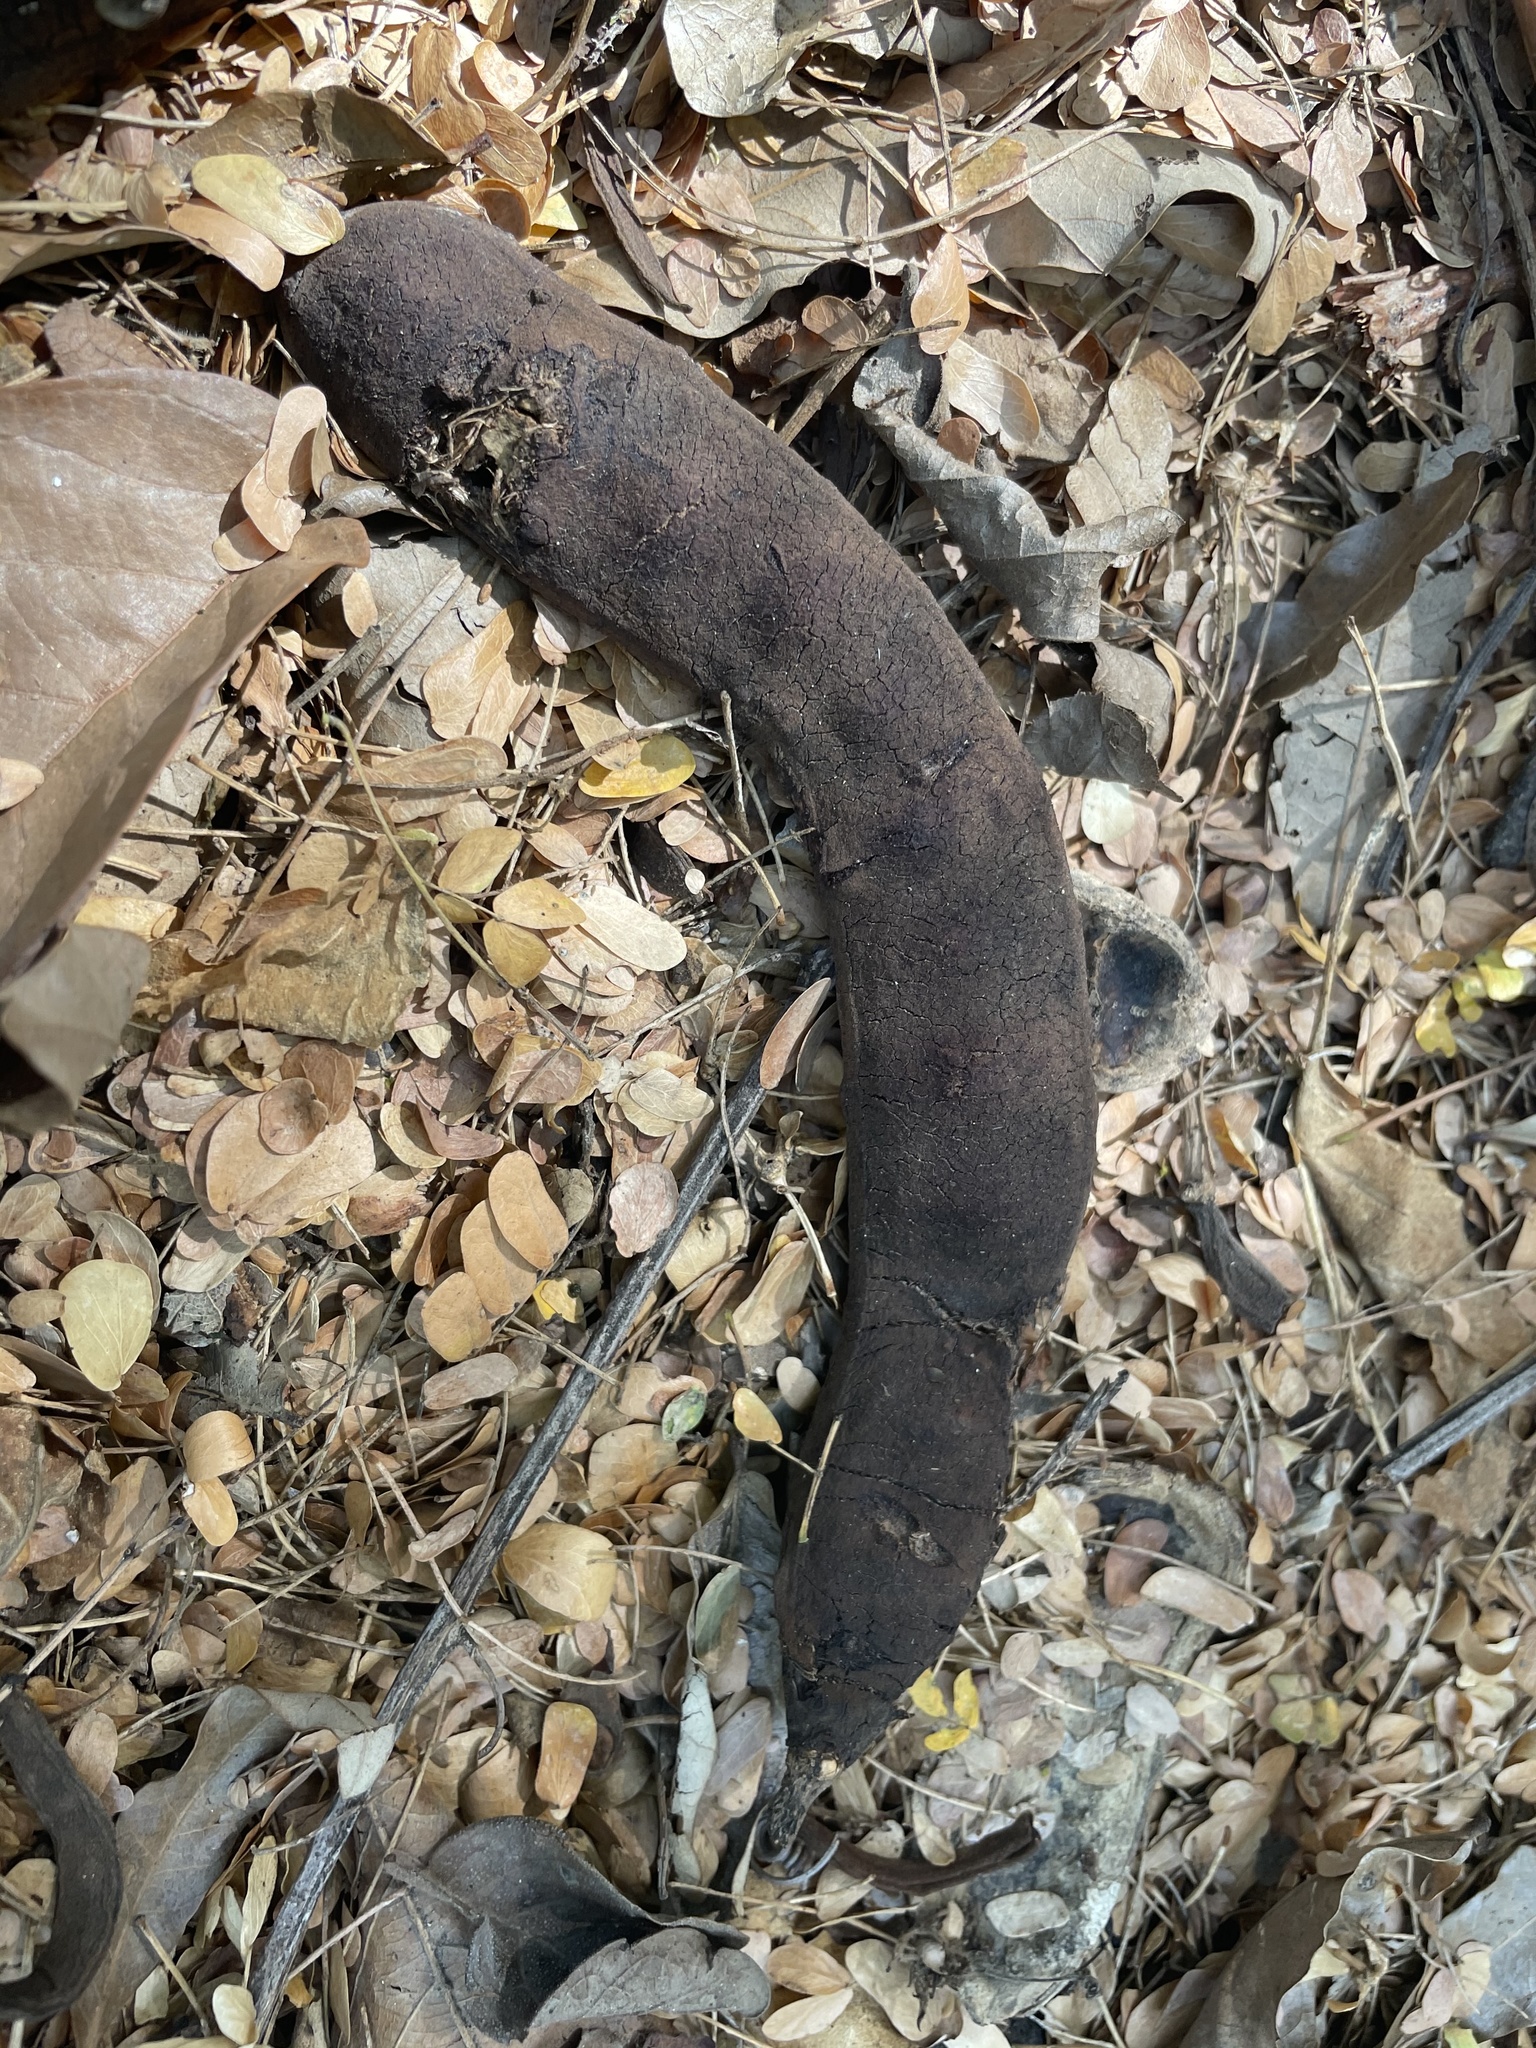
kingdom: Plantae
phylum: Tracheophyta
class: Magnoliopsida
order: Fabales
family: Fabaceae
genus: Ebenopsis
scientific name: Ebenopsis ebano
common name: Ebony blackbead
